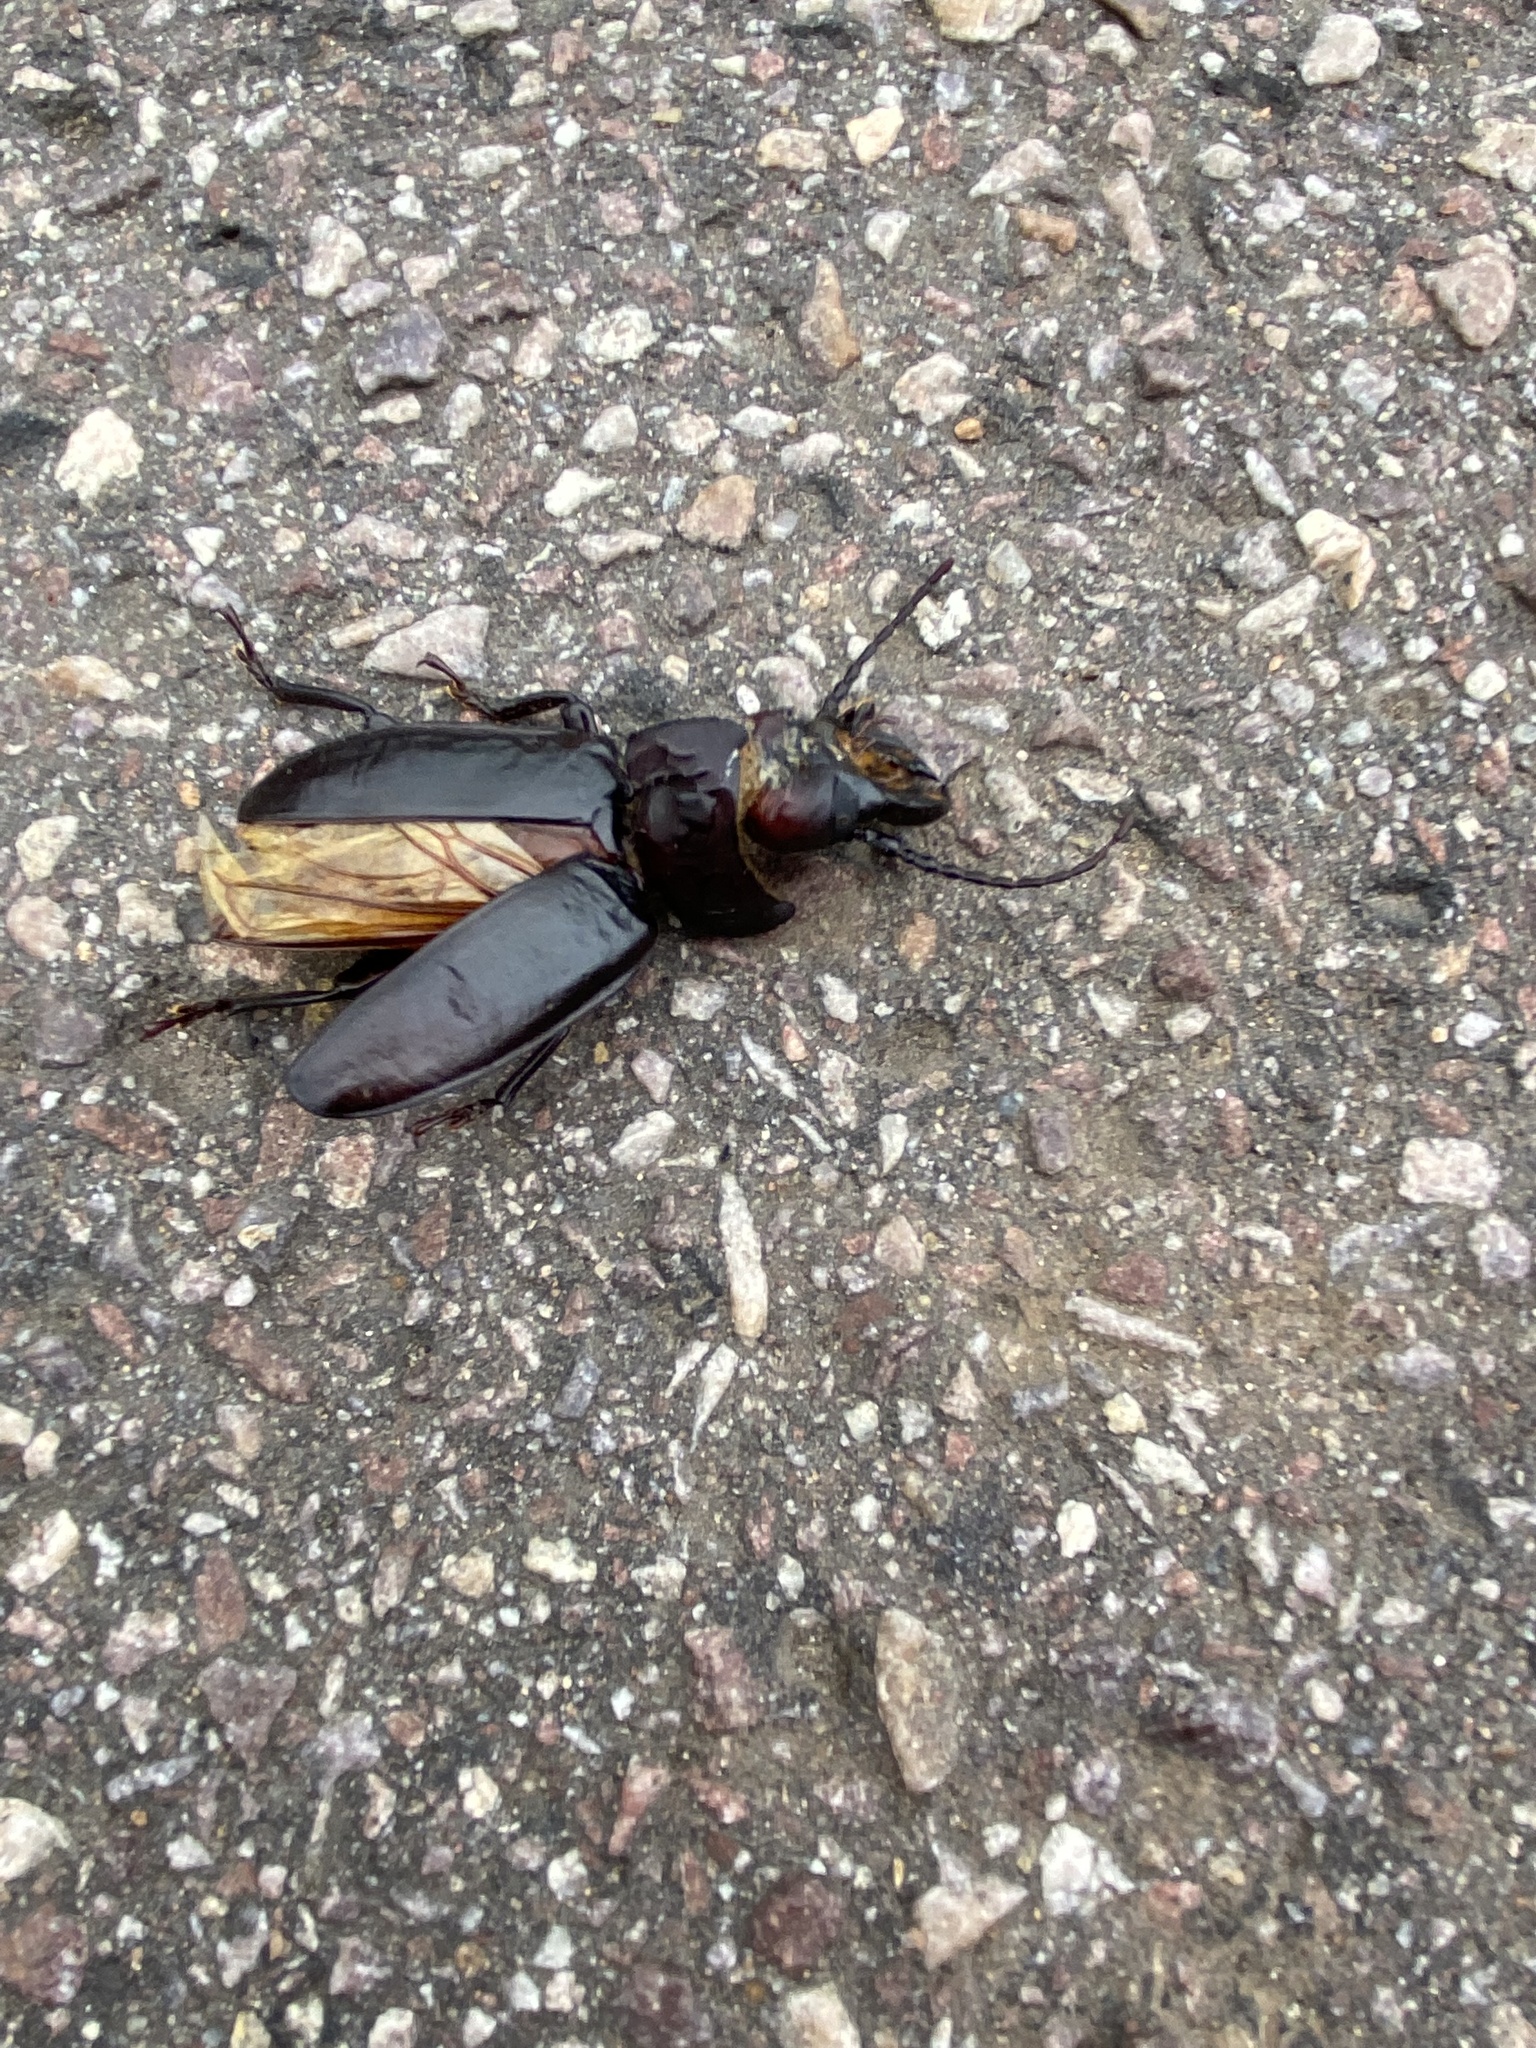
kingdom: Animalia
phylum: Arthropoda
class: Insecta
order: Coleoptera
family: Cerambycidae
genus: Mallodon
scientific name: Mallodon downesii
